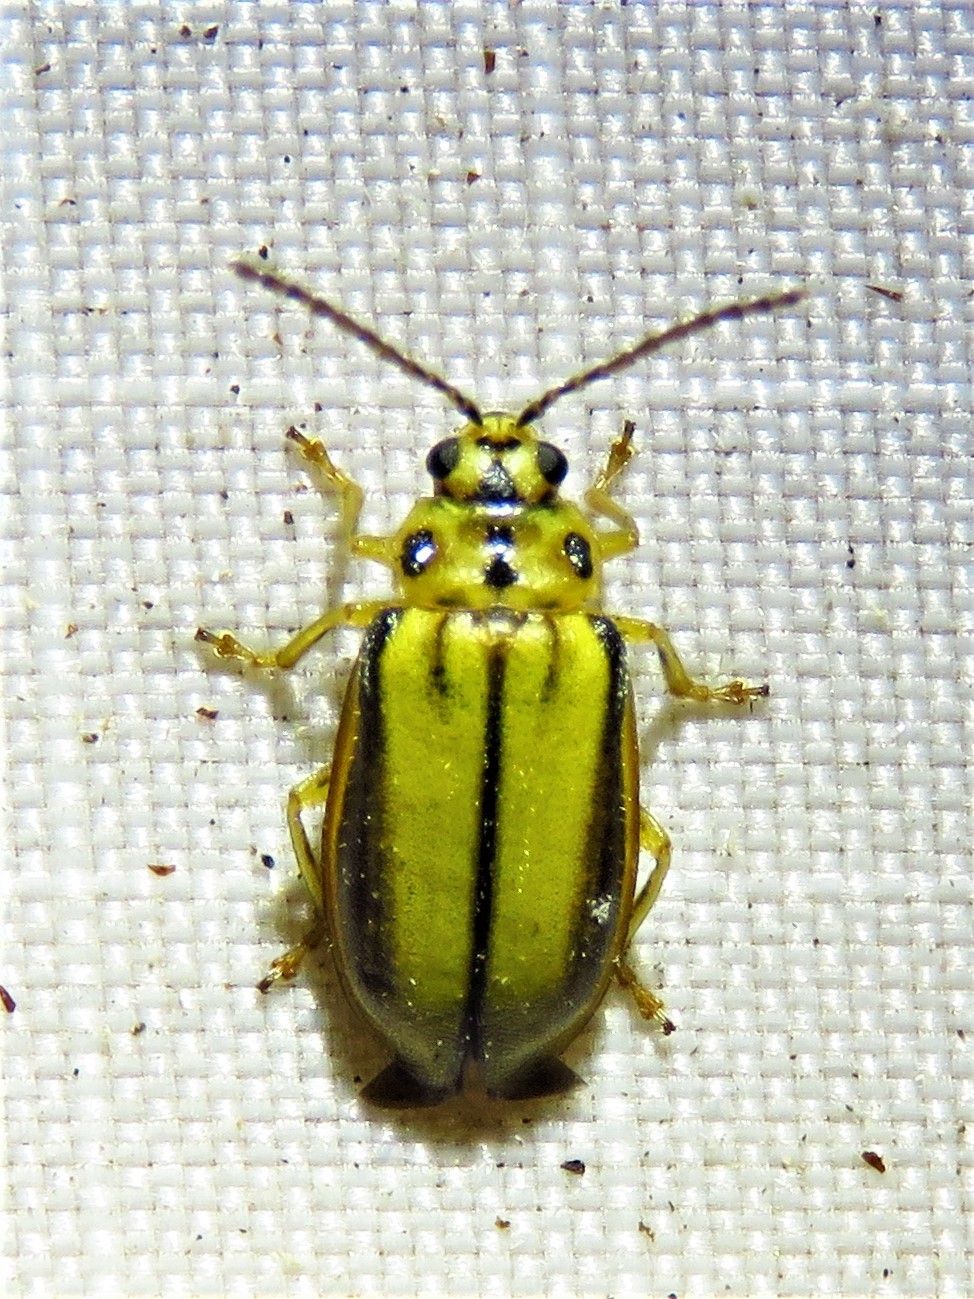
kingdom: Animalia
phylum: Arthropoda
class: Insecta
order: Coleoptera
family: Chrysomelidae
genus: Xanthogaleruca
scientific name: Xanthogaleruca luteola
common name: Elm leaf beetle
